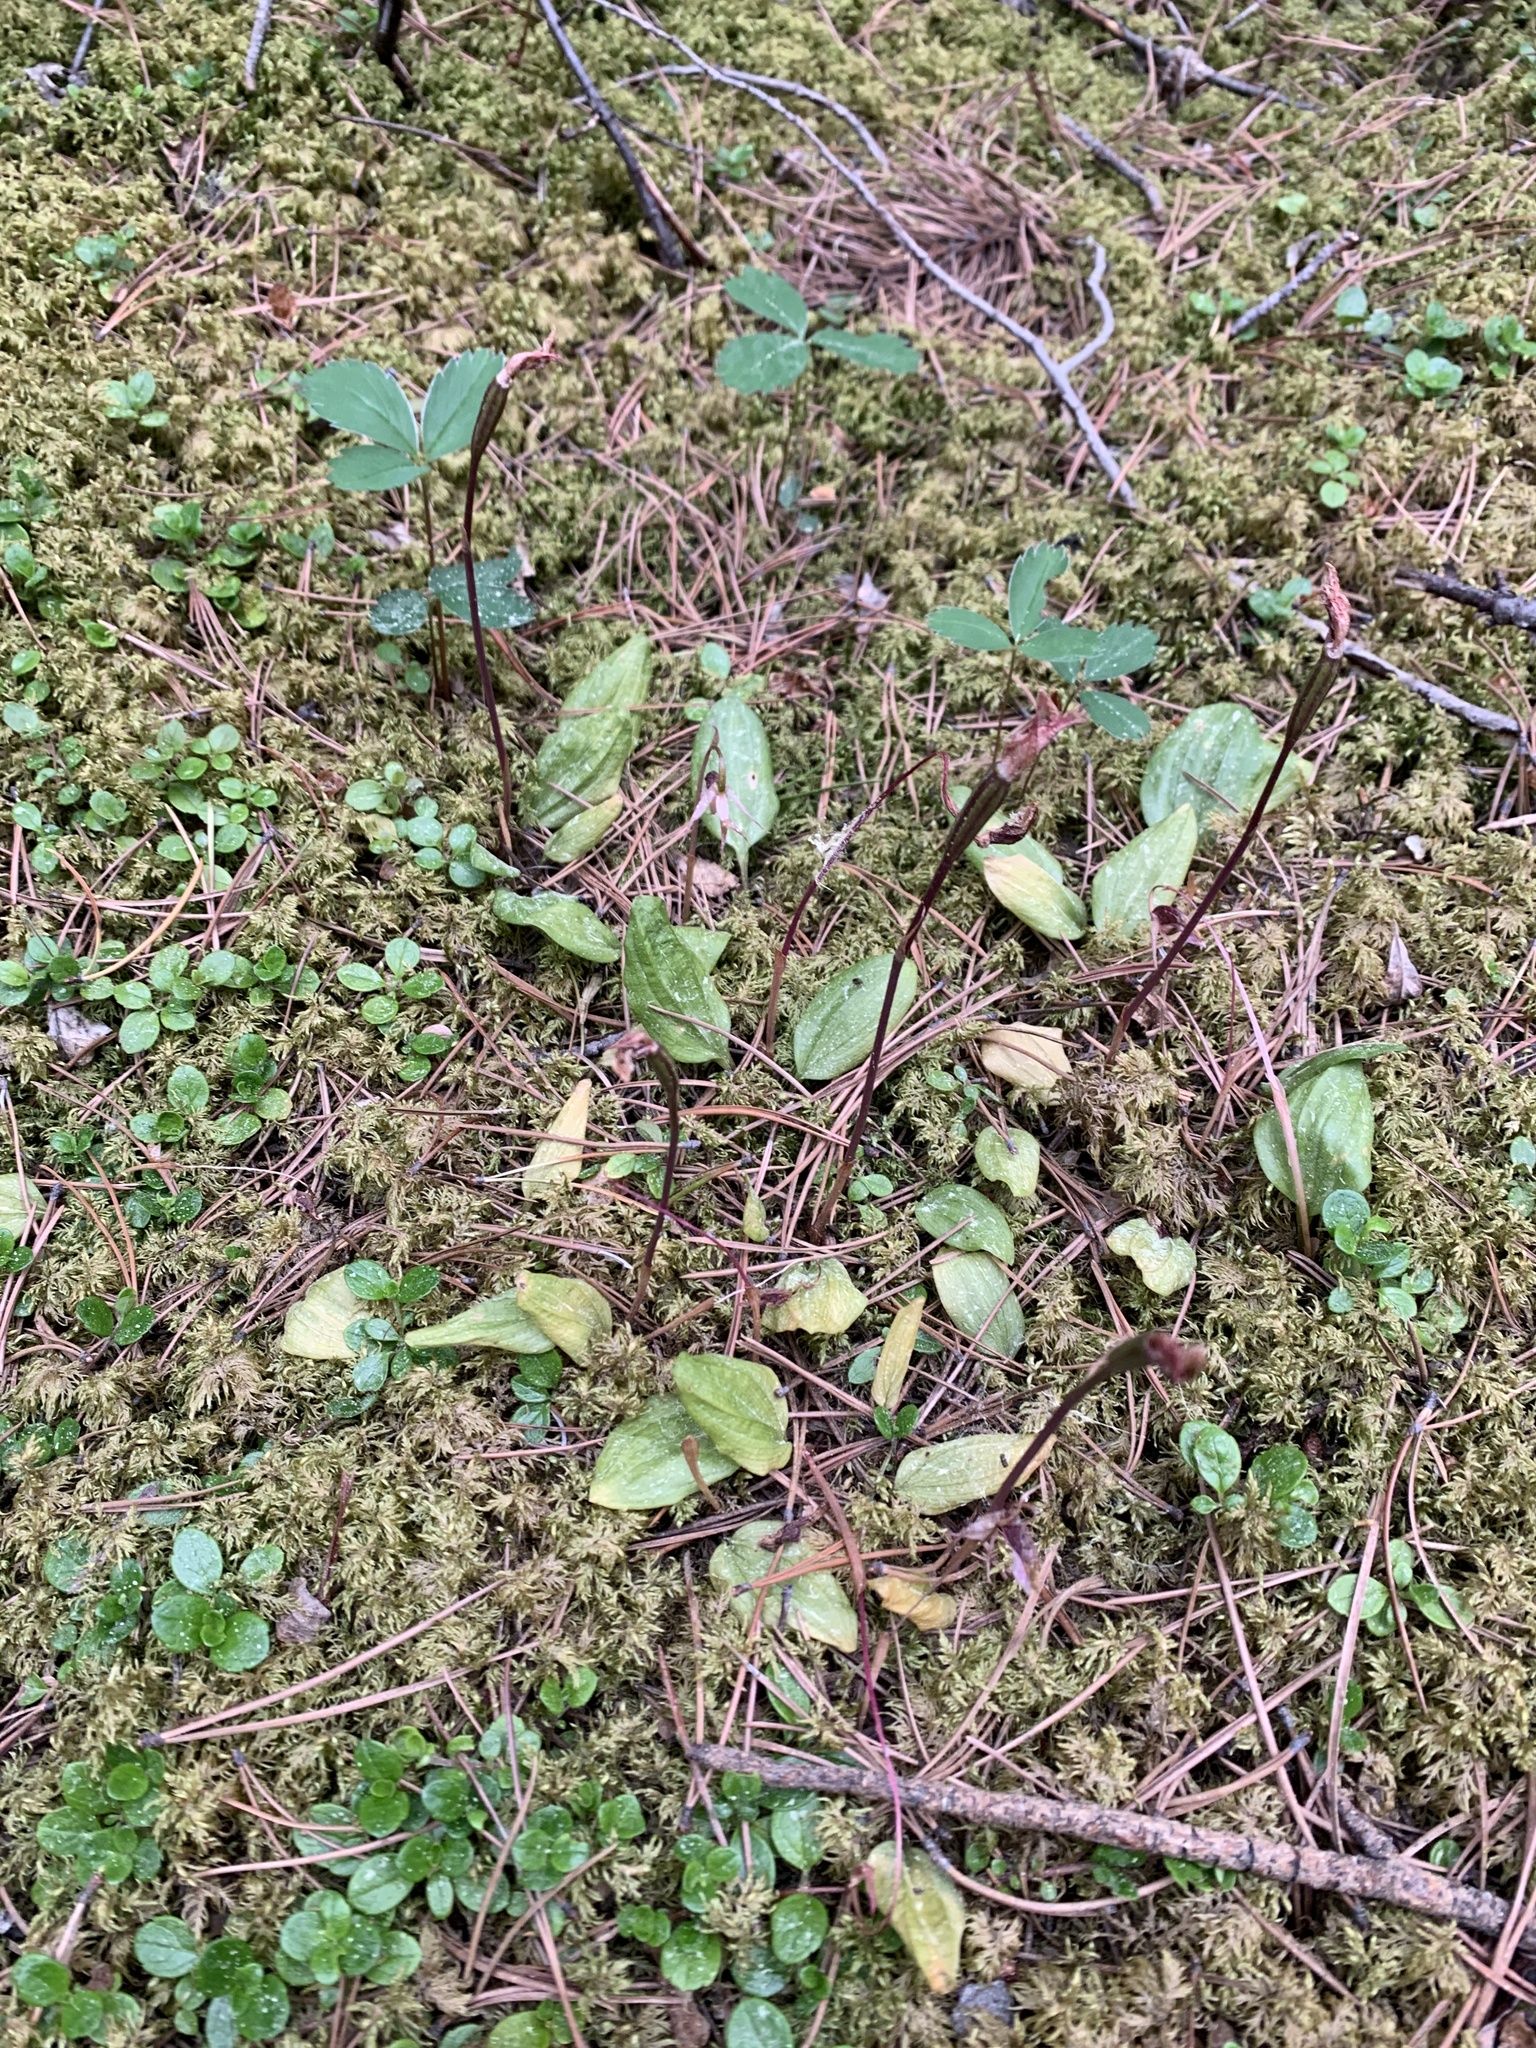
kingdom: Plantae
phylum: Tracheophyta
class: Liliopsida
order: Asparagales
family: Orchidaceae
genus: Calypso
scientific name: Calypso bulbosa
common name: Calypso
